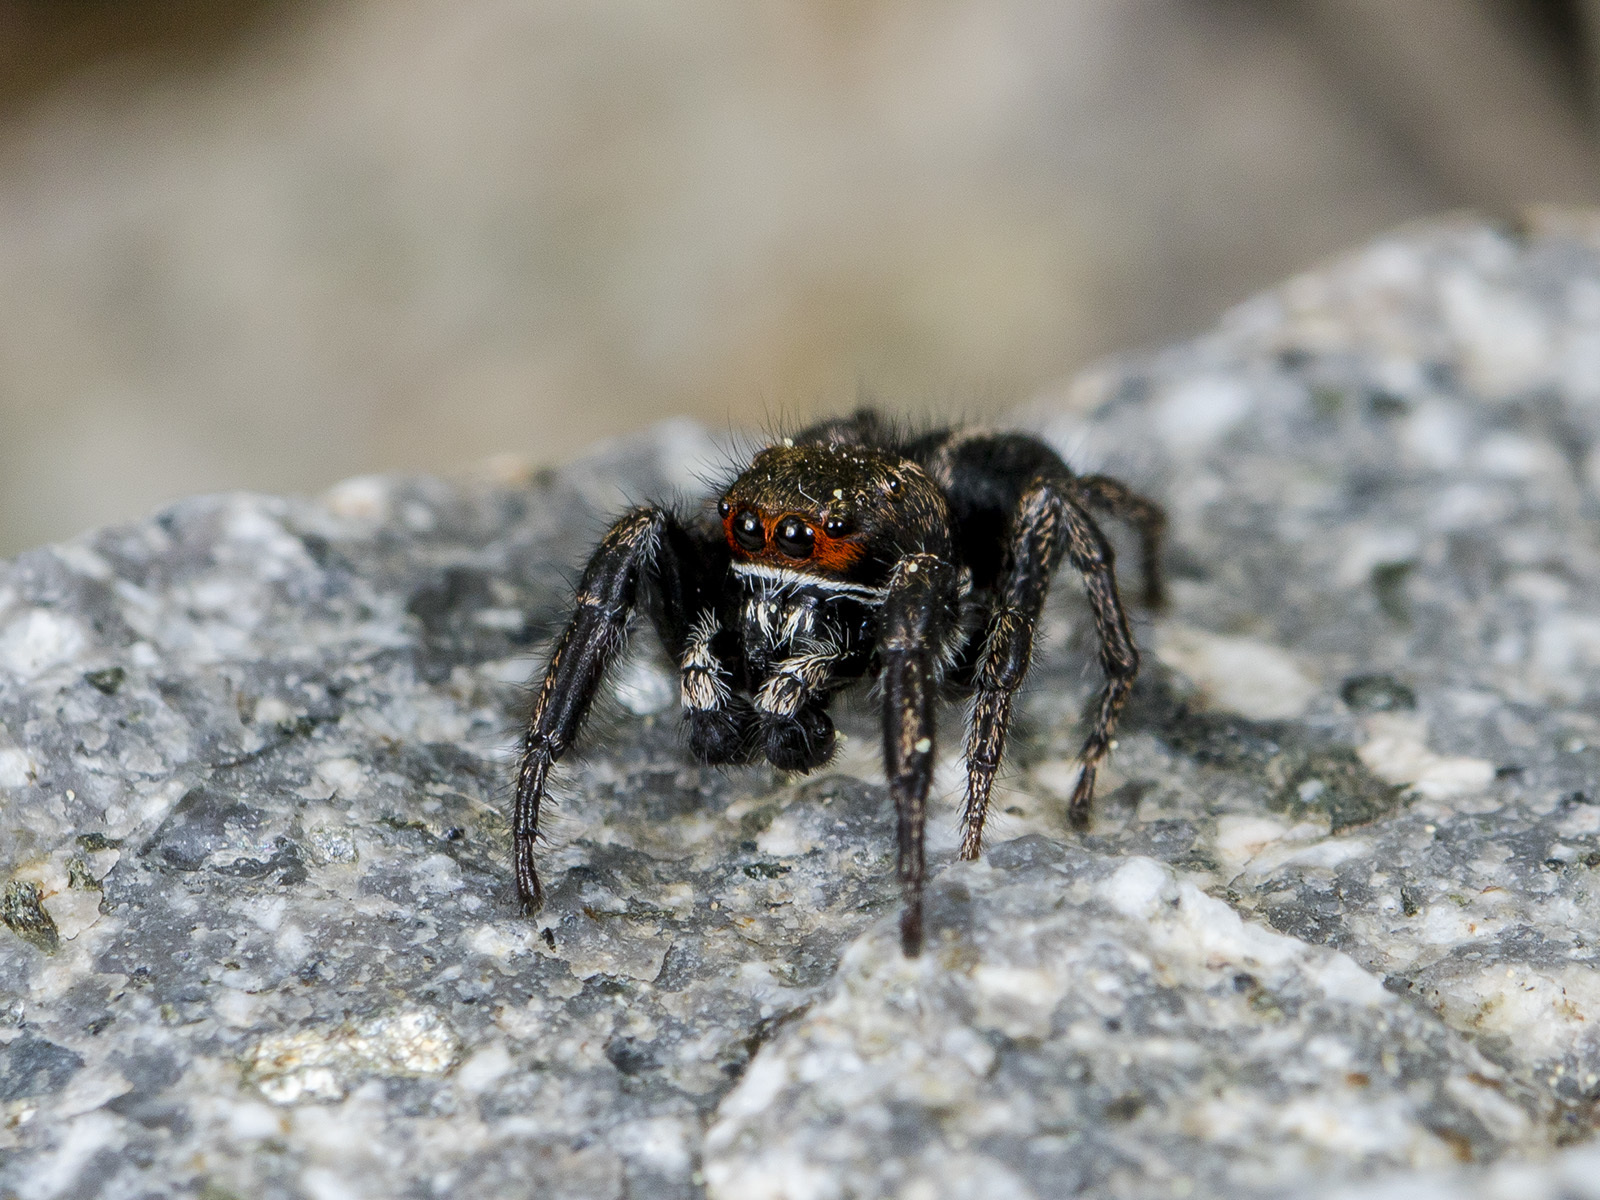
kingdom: Animalia
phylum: Arthropoda
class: Arachnida
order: Araneae
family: Salticidae
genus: Pellenes
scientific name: Pellenes sibiricus
